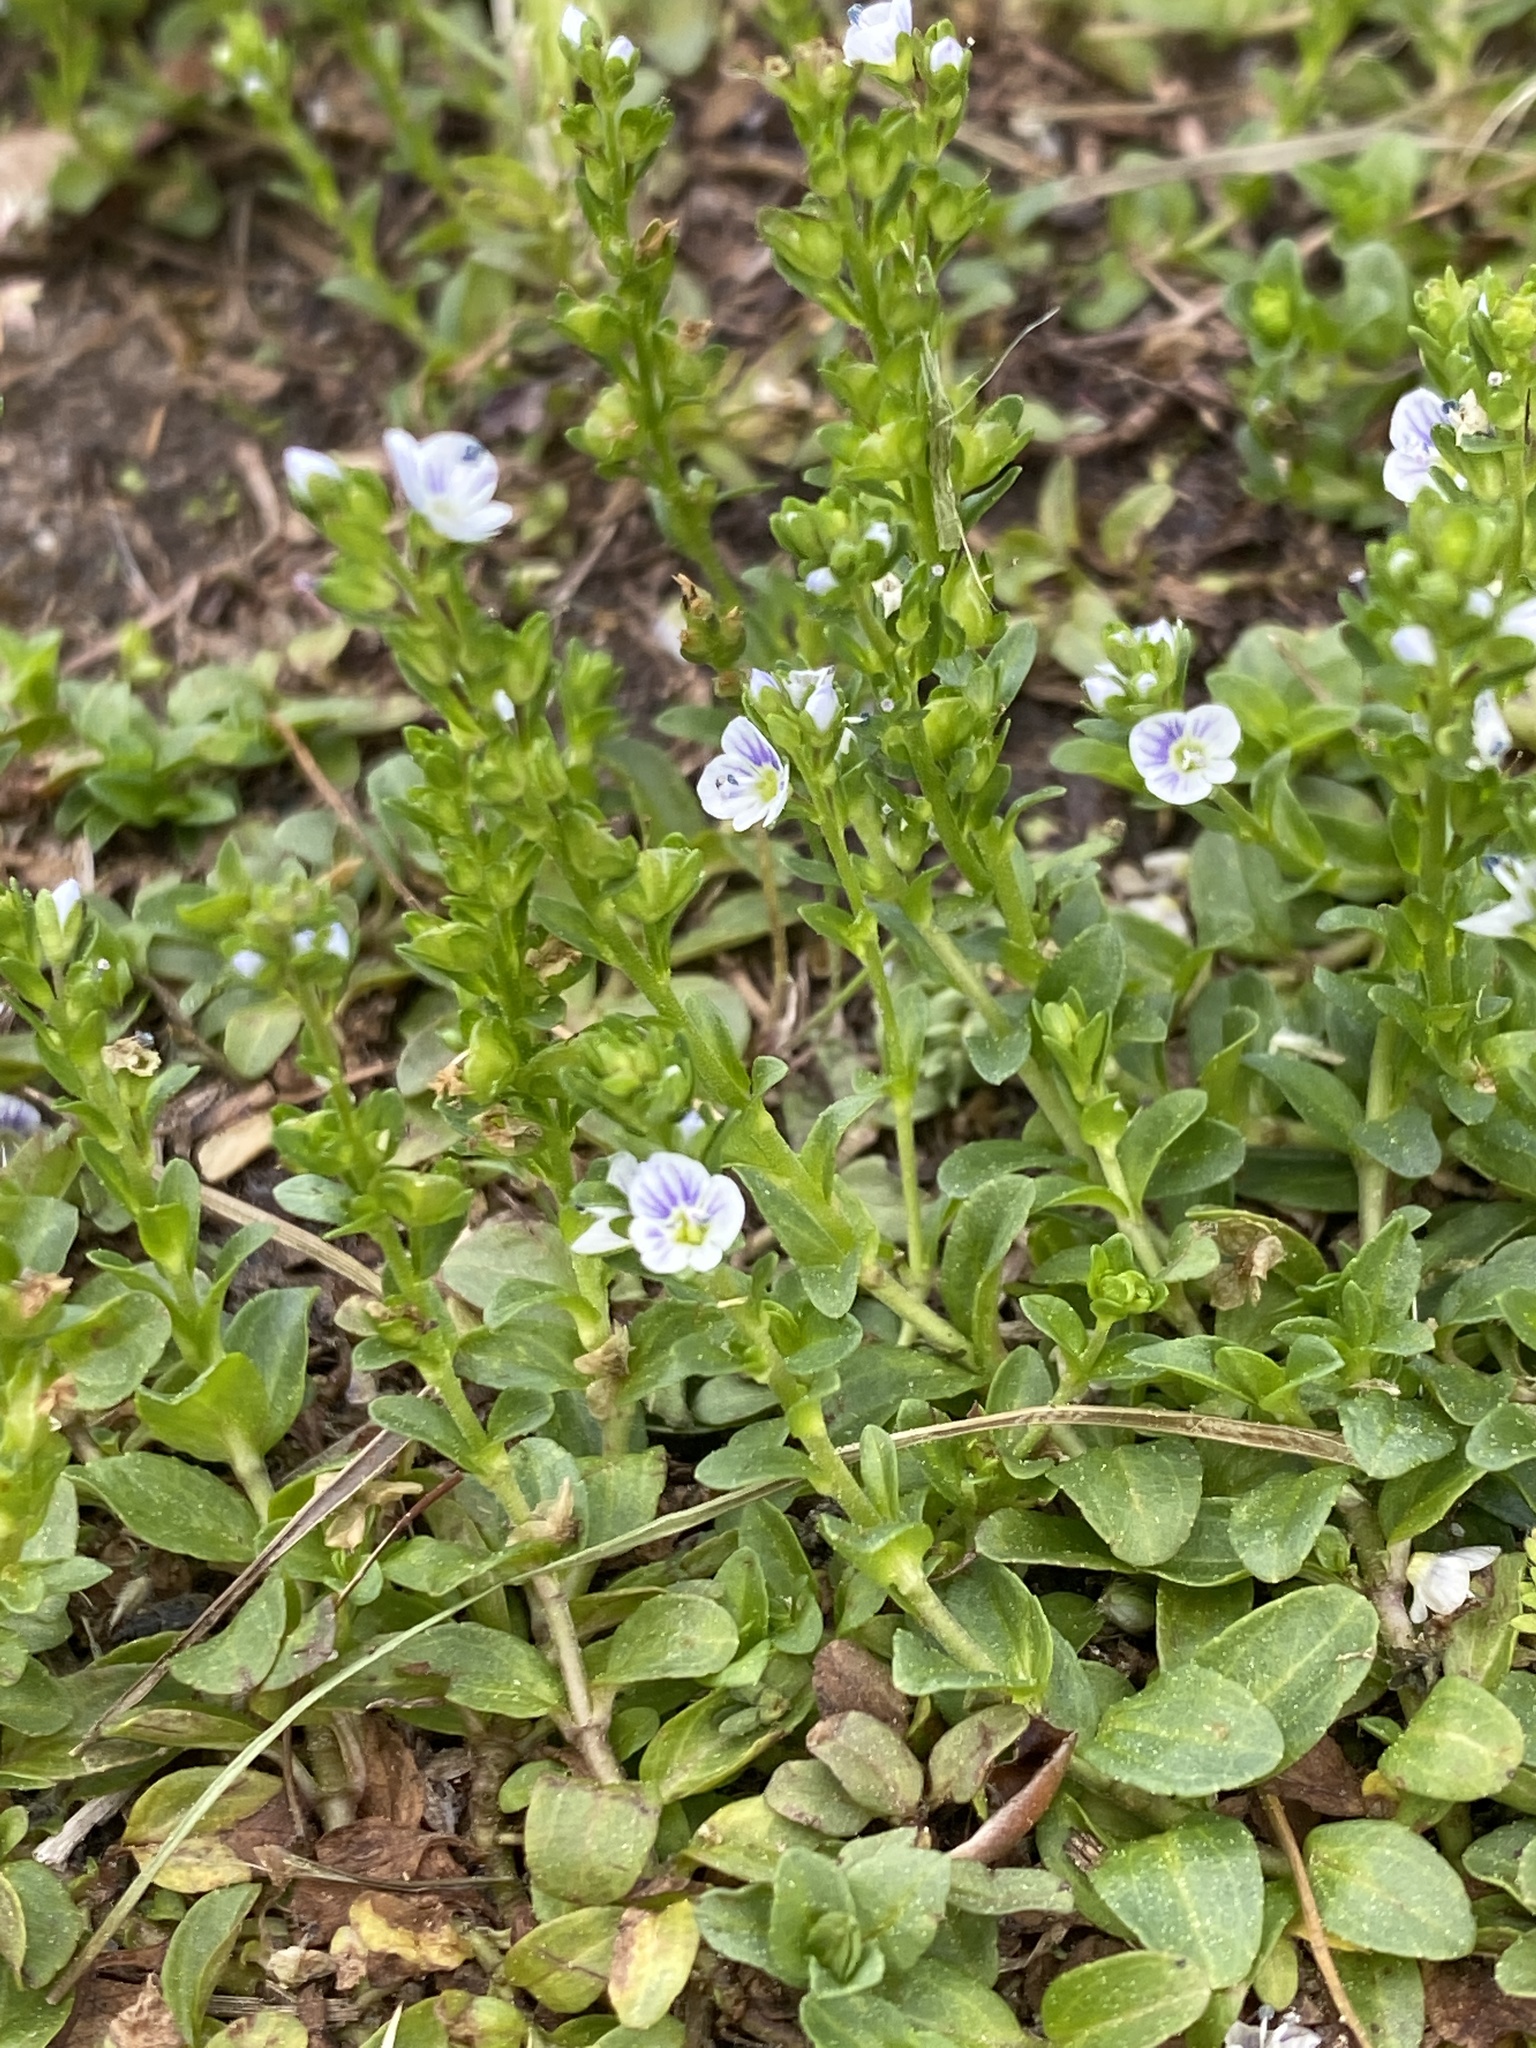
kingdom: Plantae
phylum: Tracheophyta
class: Magnoliopsida
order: Lamiales
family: Plantaginaceae
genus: Veronica
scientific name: Veronica serpyllifolia
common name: Thyme-leaved speedwell
